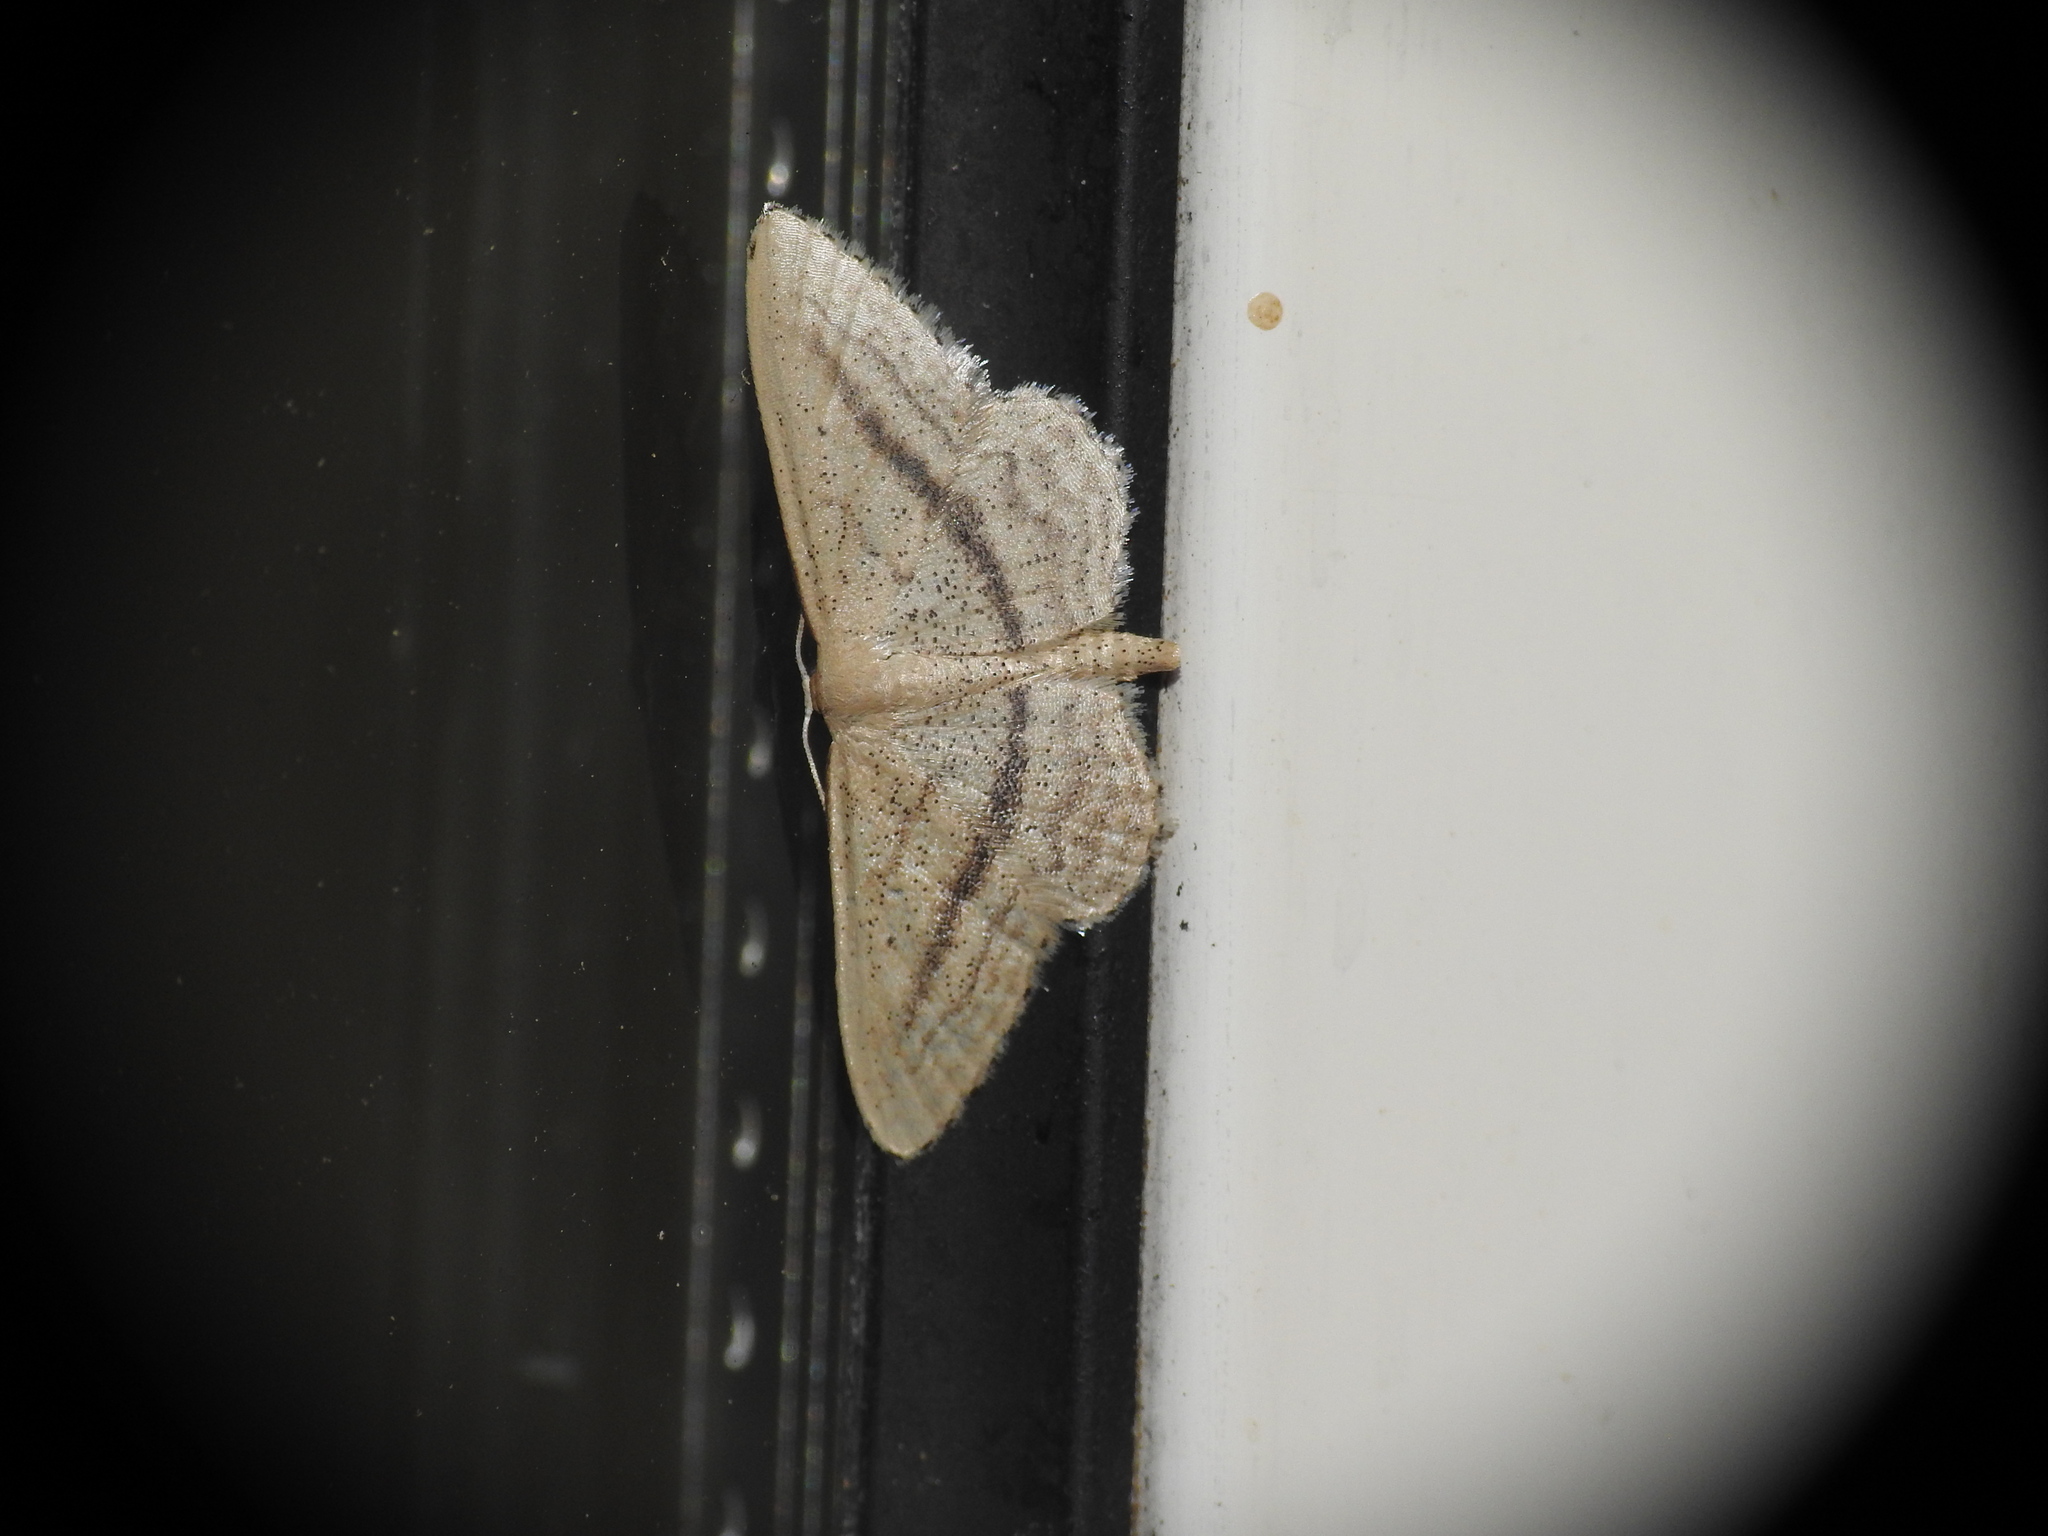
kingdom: Animalia
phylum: Arthropoda
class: Insecta
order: Lepidoptera
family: Geometridae
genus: Idaea
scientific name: Idaea mediaria
